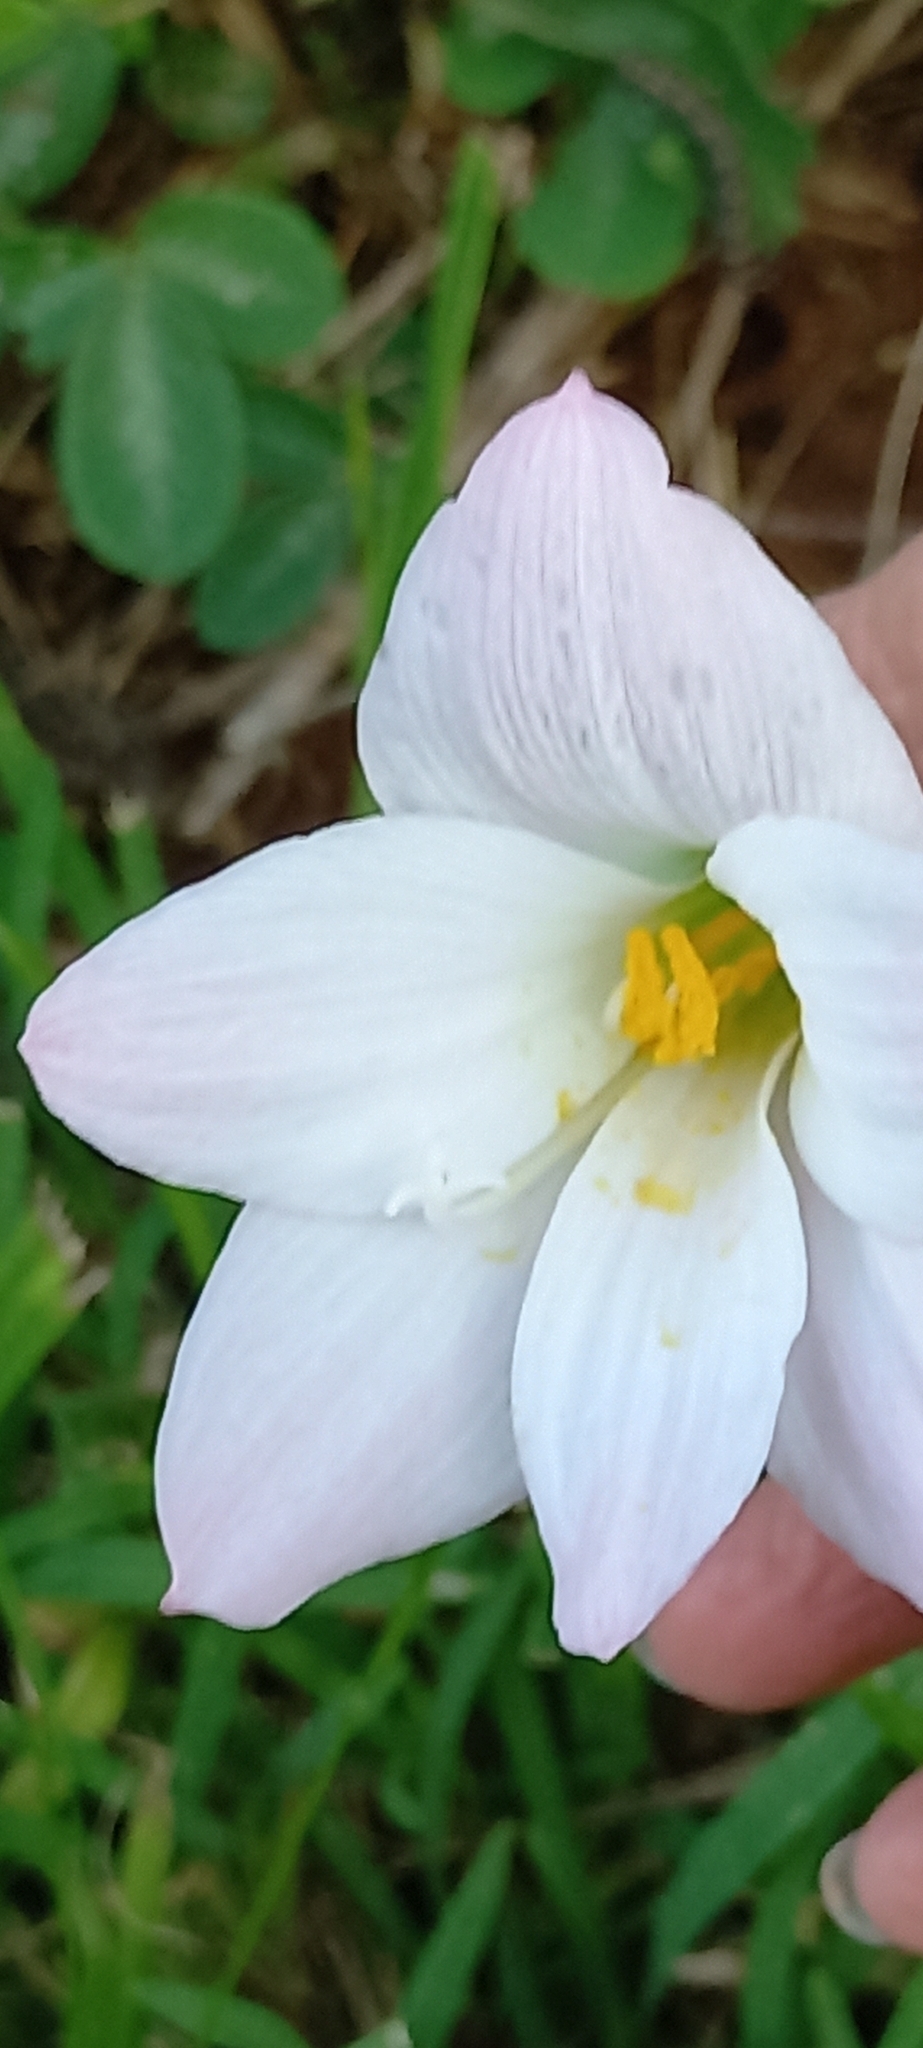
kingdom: Plantae
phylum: Tracheophyta
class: Liliopsida
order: Asparagales
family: Amaryllidaceae
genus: Zephyranthes
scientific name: Zephyranthes robusta
